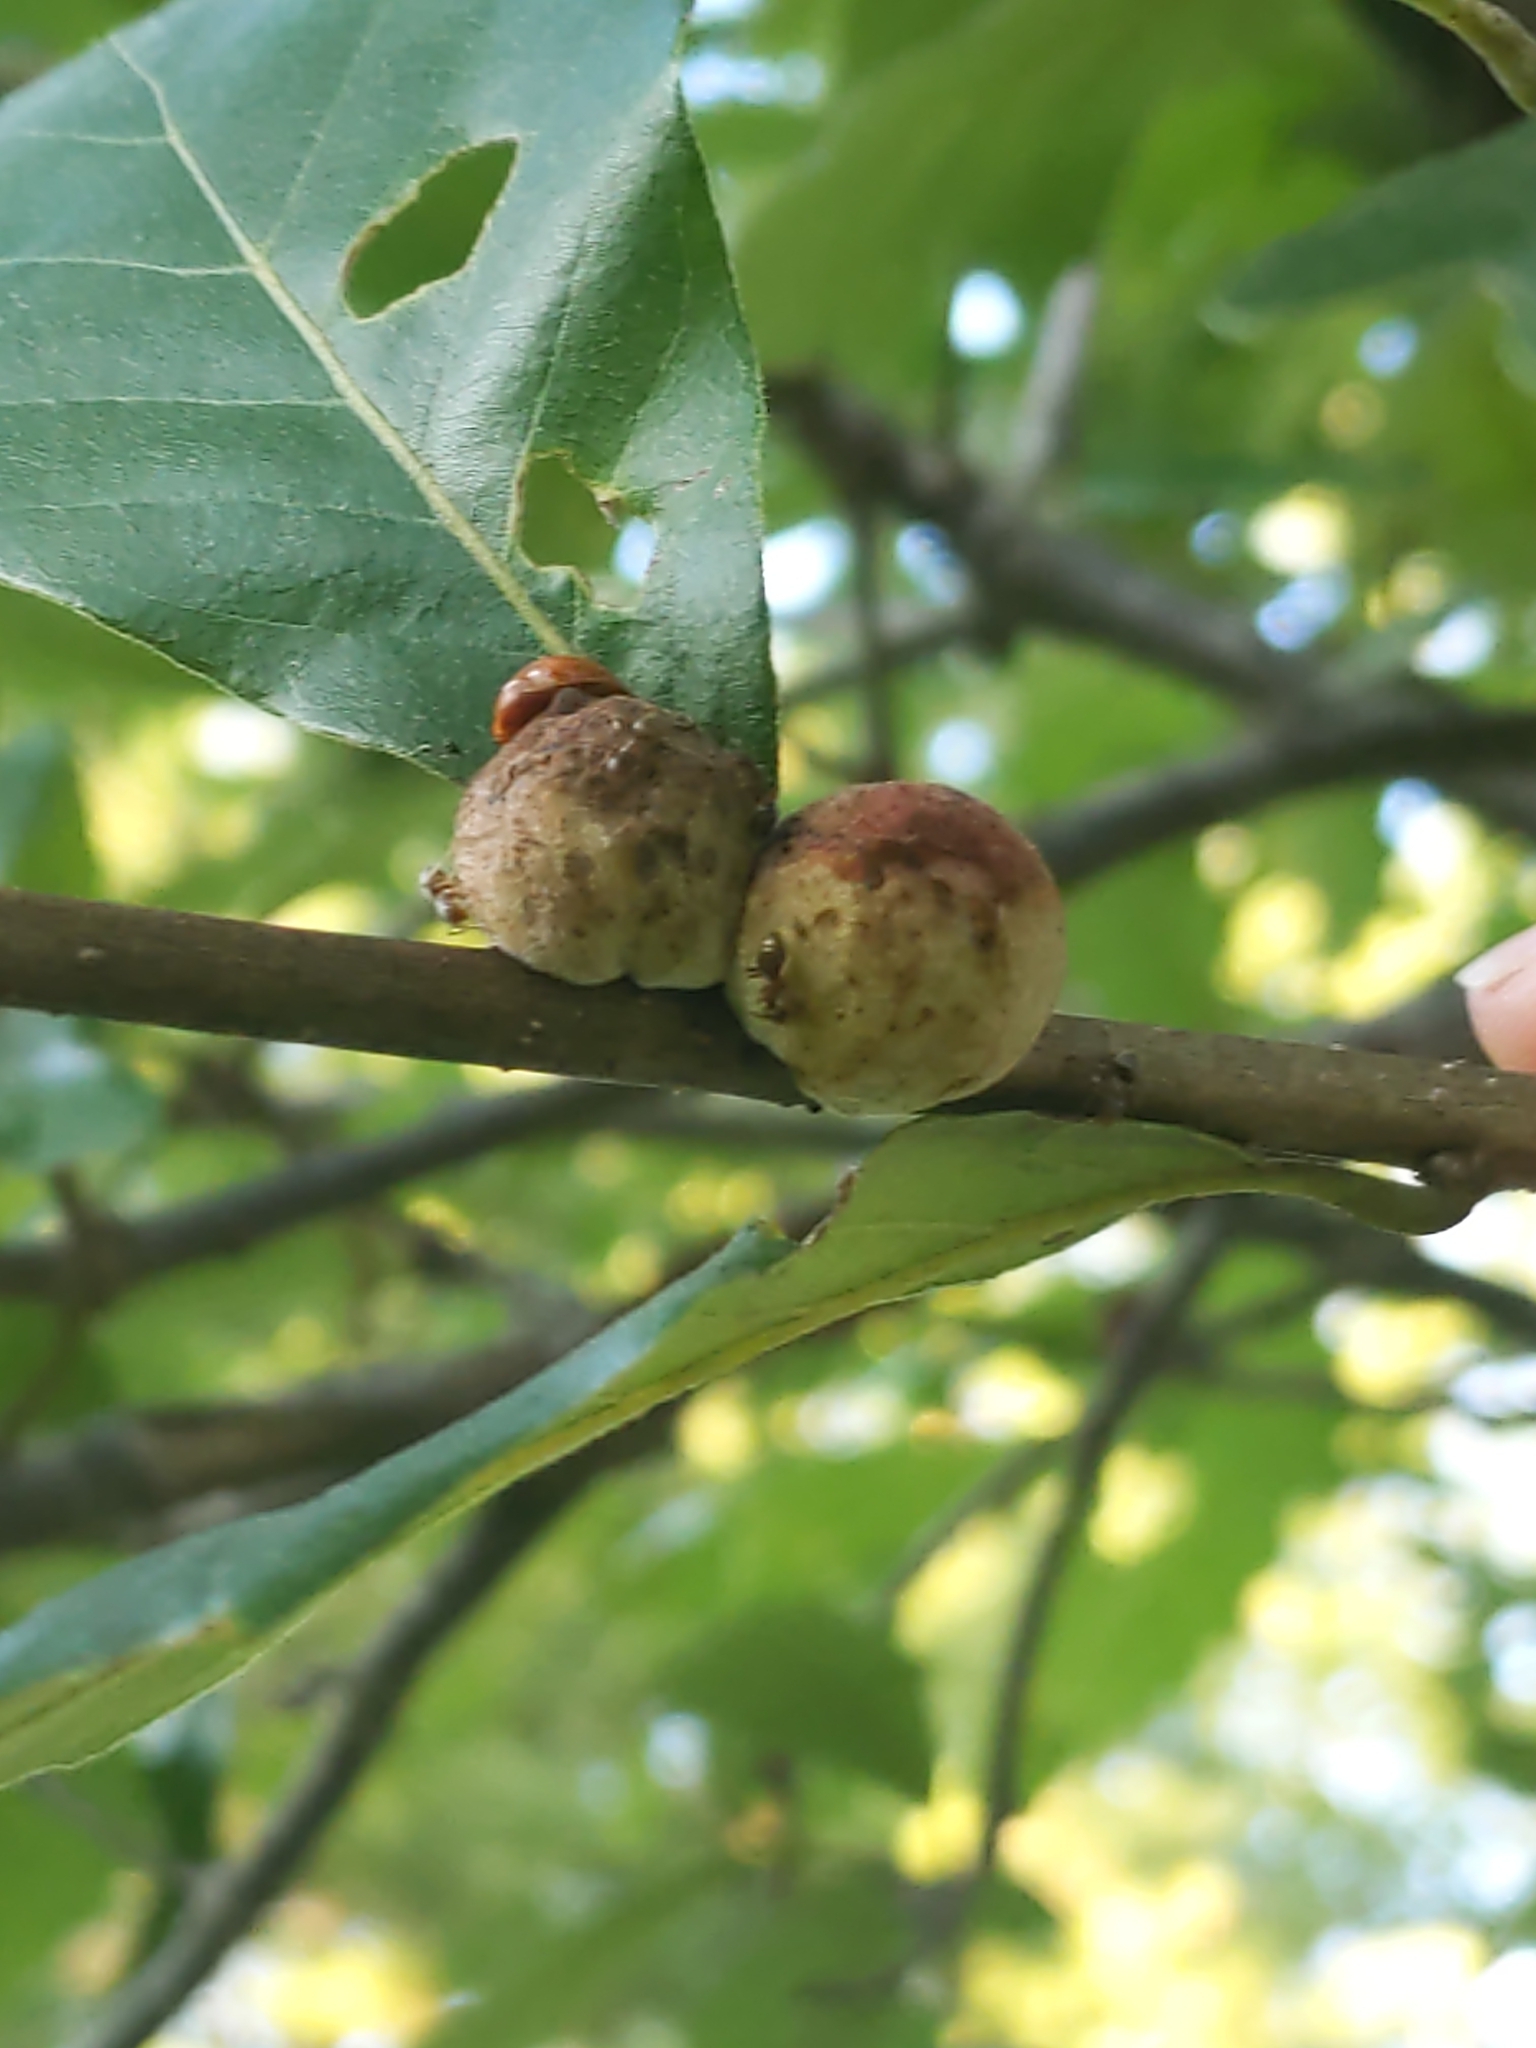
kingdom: Animalia
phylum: Arthropoda
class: Insecta
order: Hymenoptera
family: Cynipidae
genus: Disholcaspis
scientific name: Disholcaspis
